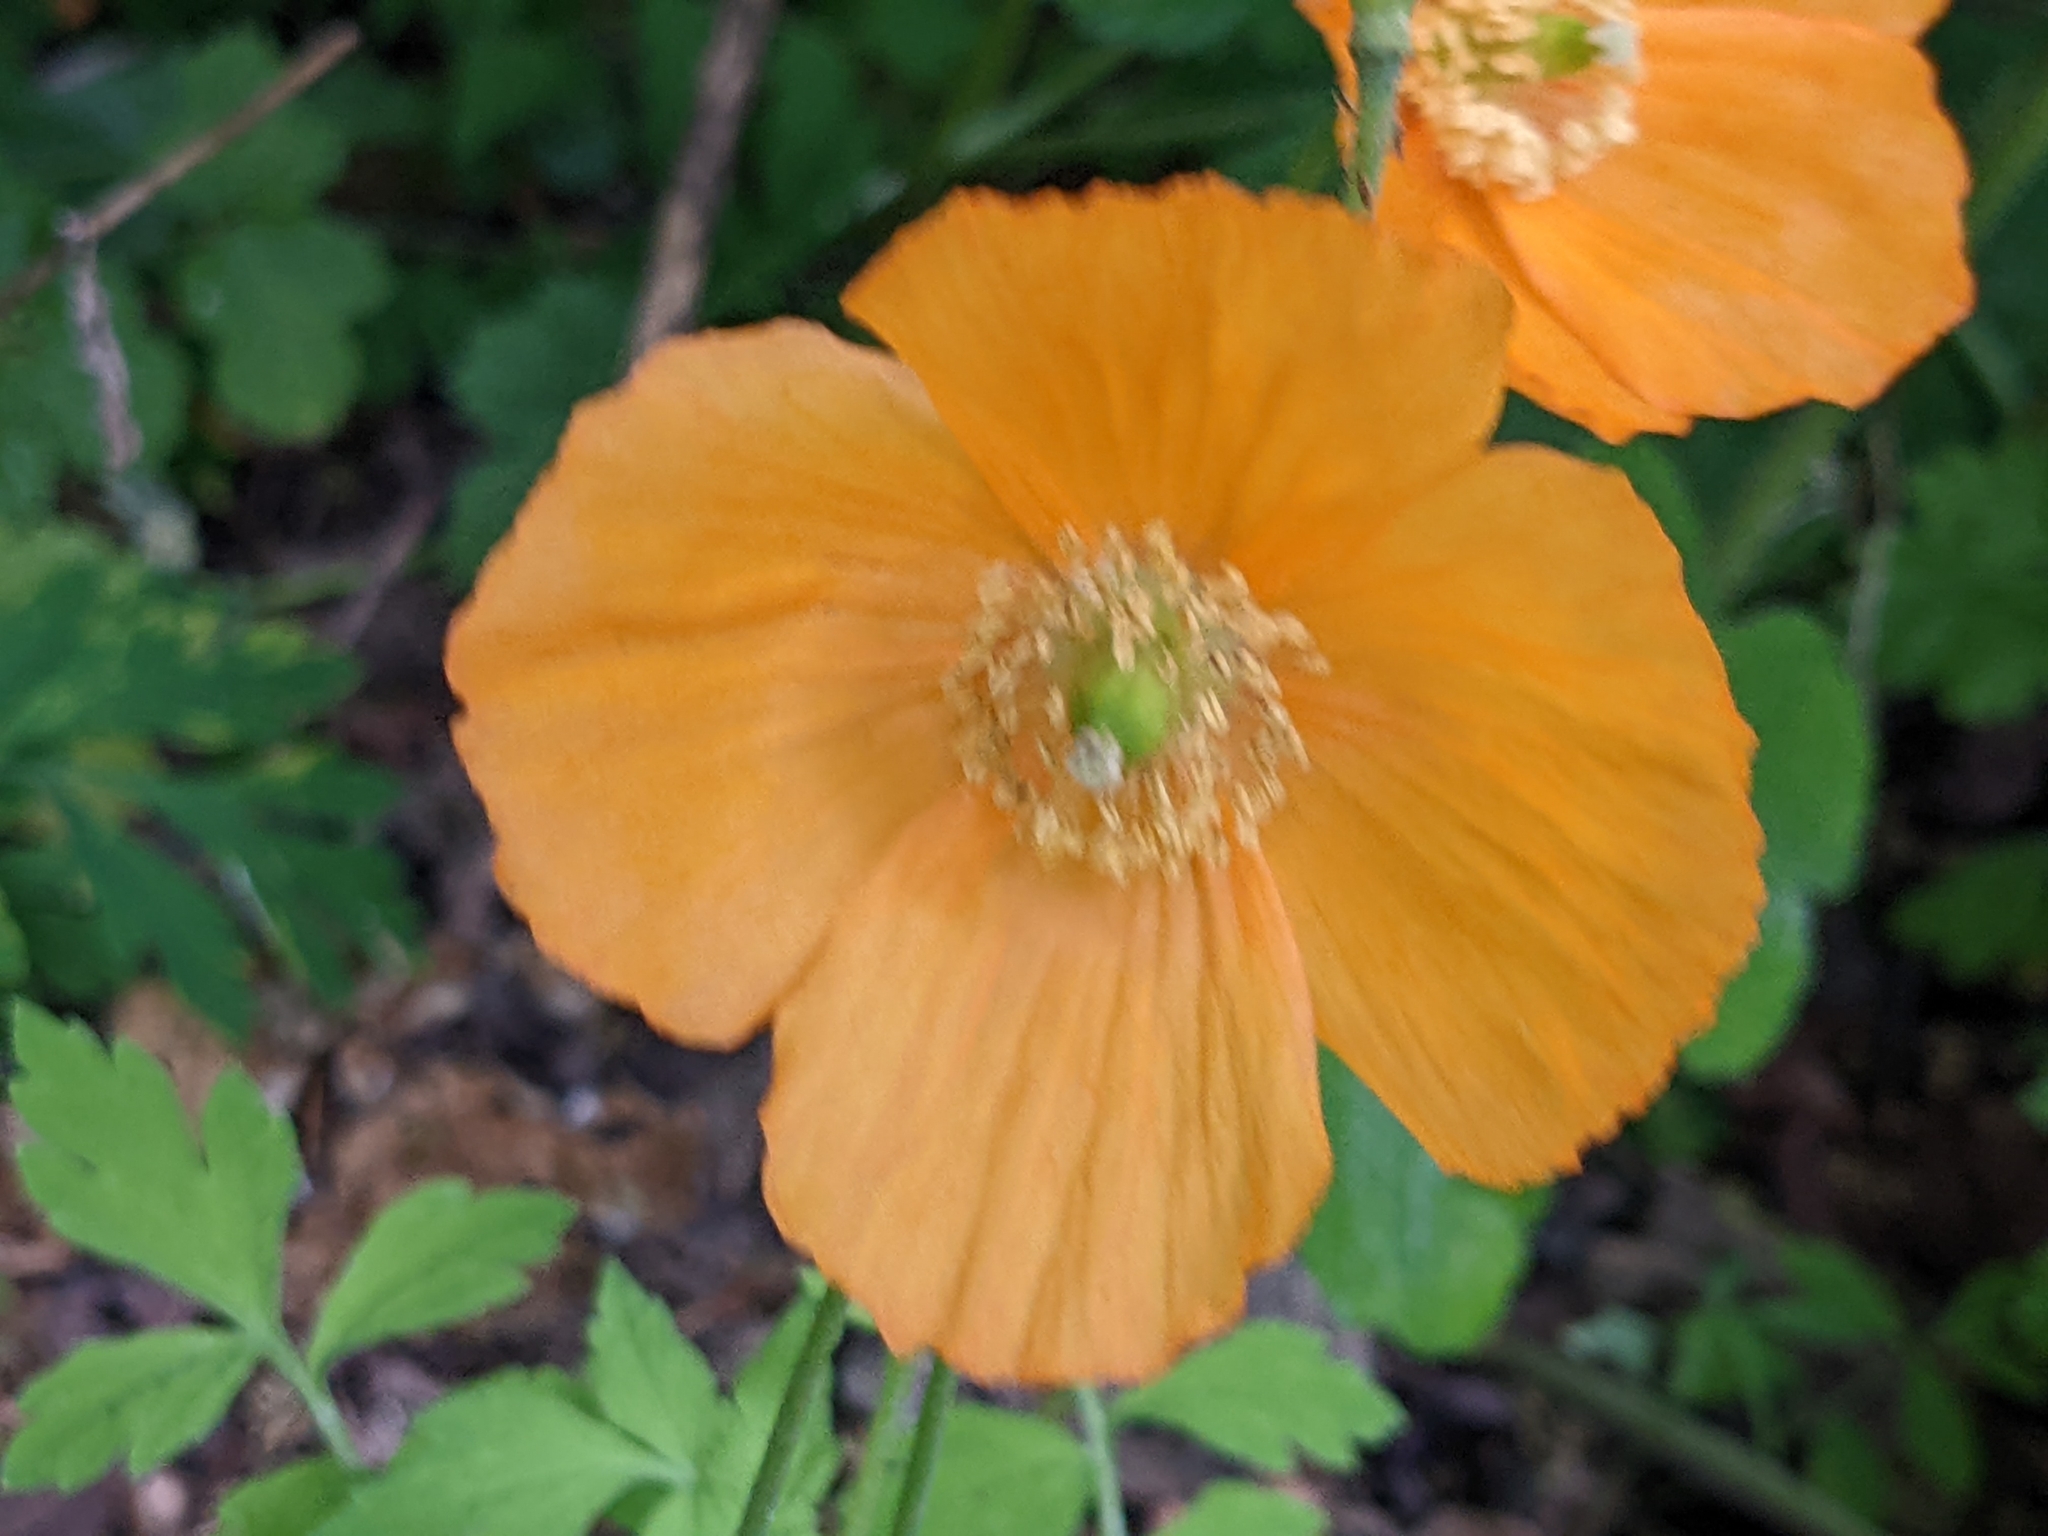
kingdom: Plantae
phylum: Tracheophyta
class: Magnoliopsida
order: Ranunculales
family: Papaveraceae
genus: Papaver
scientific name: Papaver cambricum
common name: Poppy
